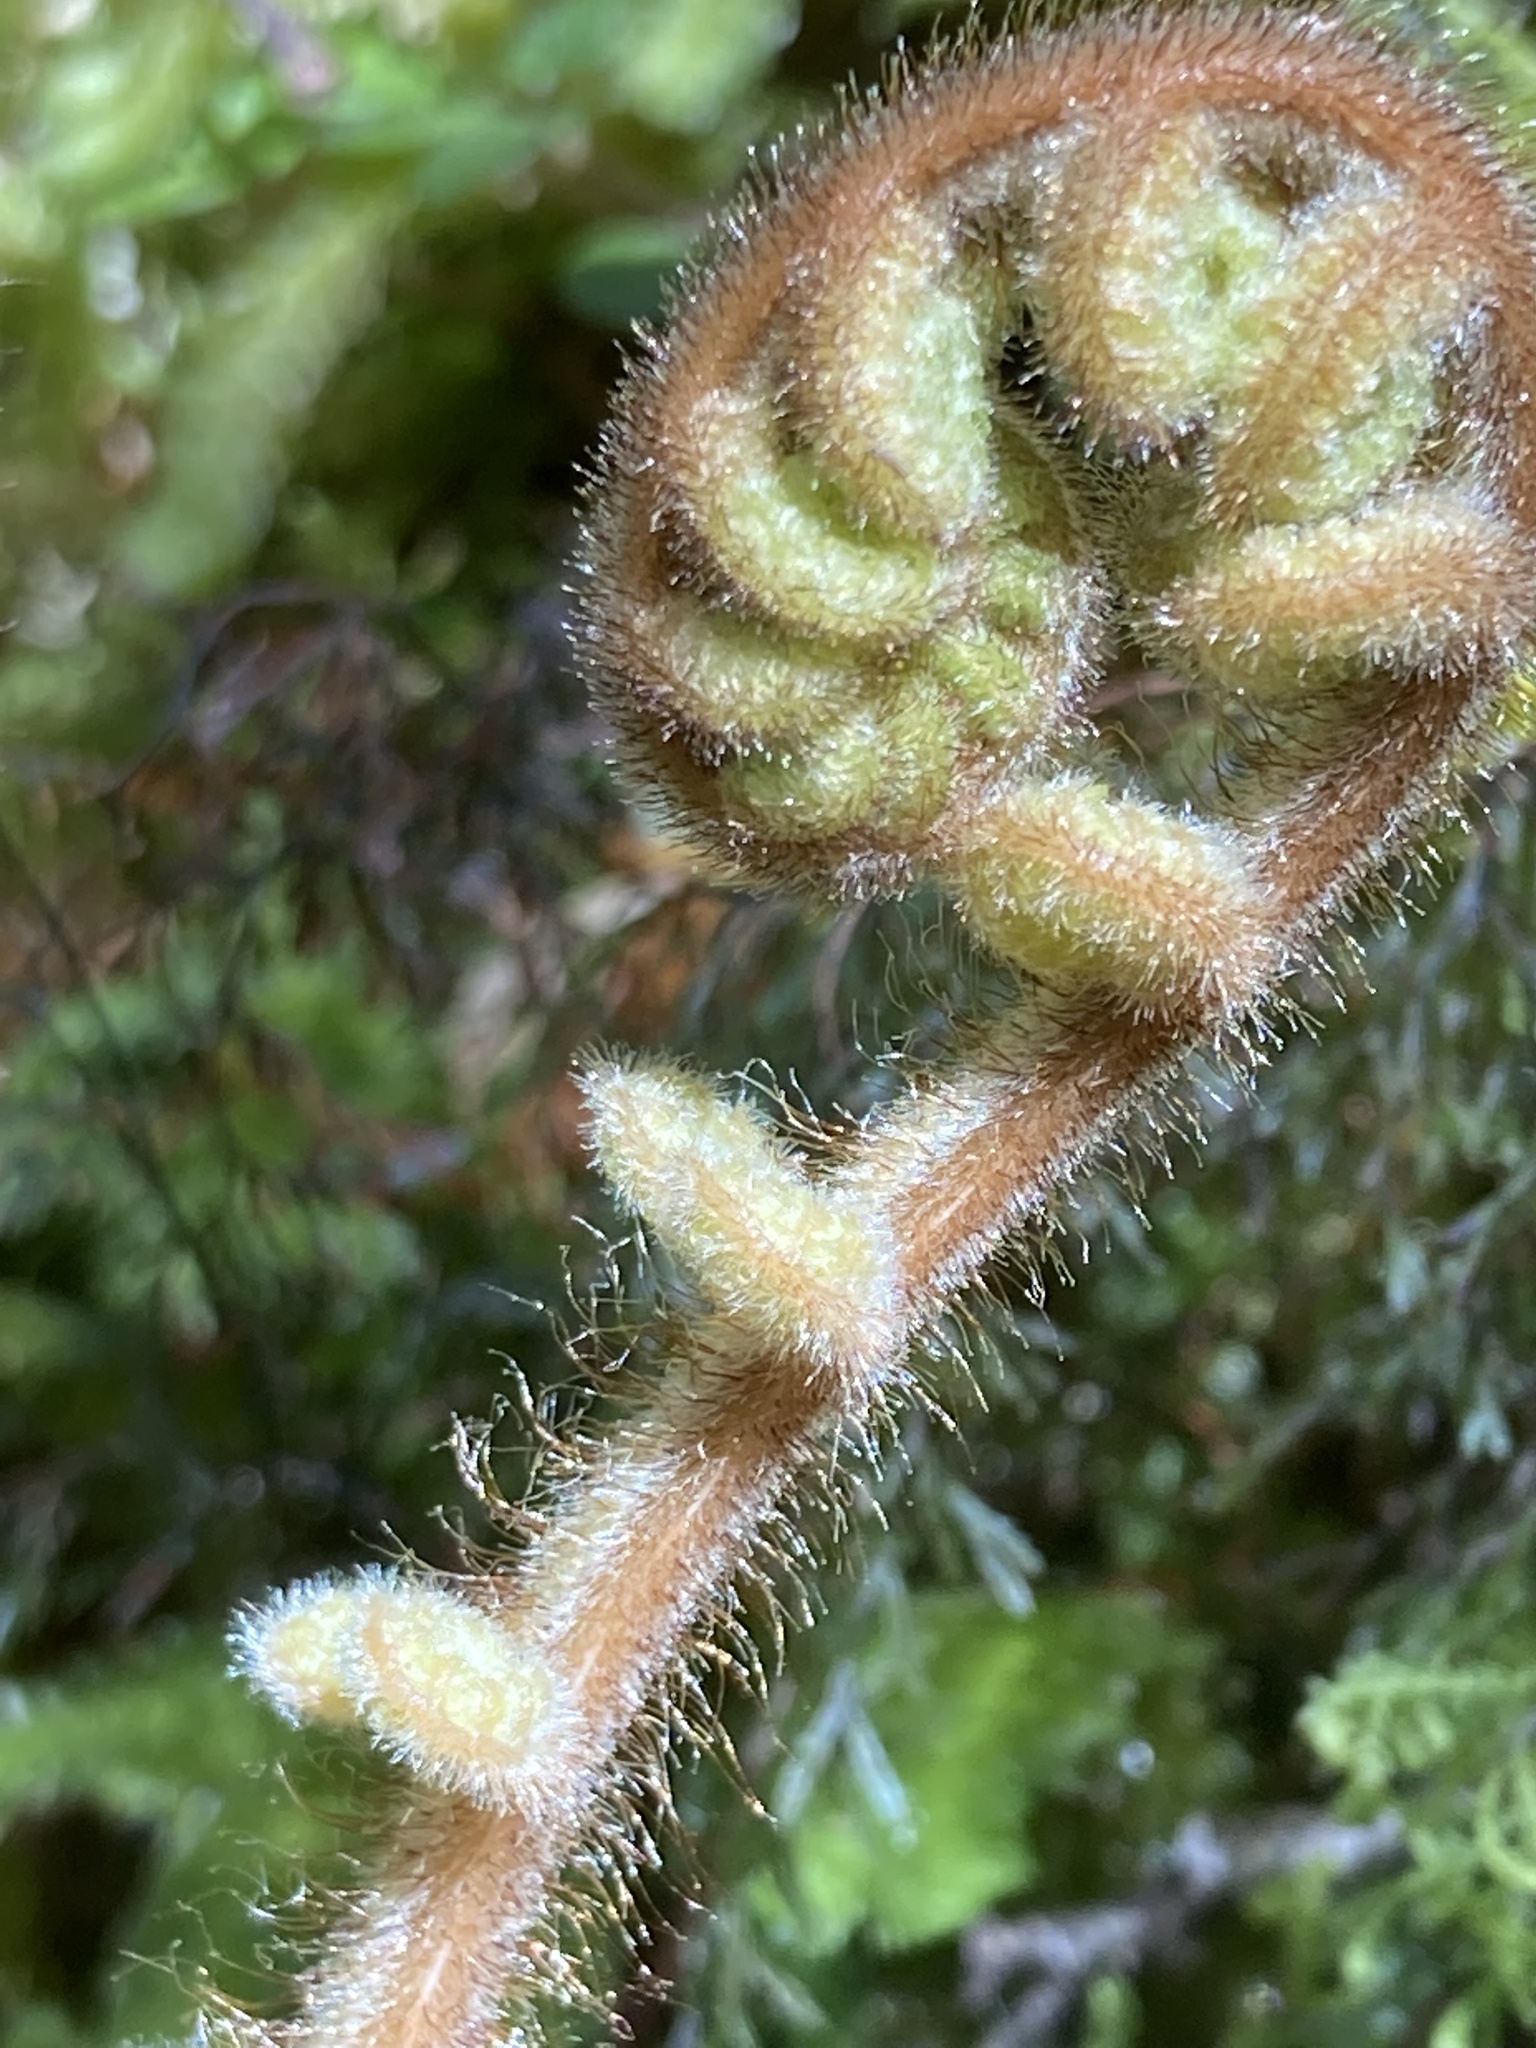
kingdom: Plantae
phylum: Tracheophyta
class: Polypodiopsida
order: Cyatheales
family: Dicksoniaceae
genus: Dicksonia
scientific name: Dicksonia squarrosa
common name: Hard treefern
